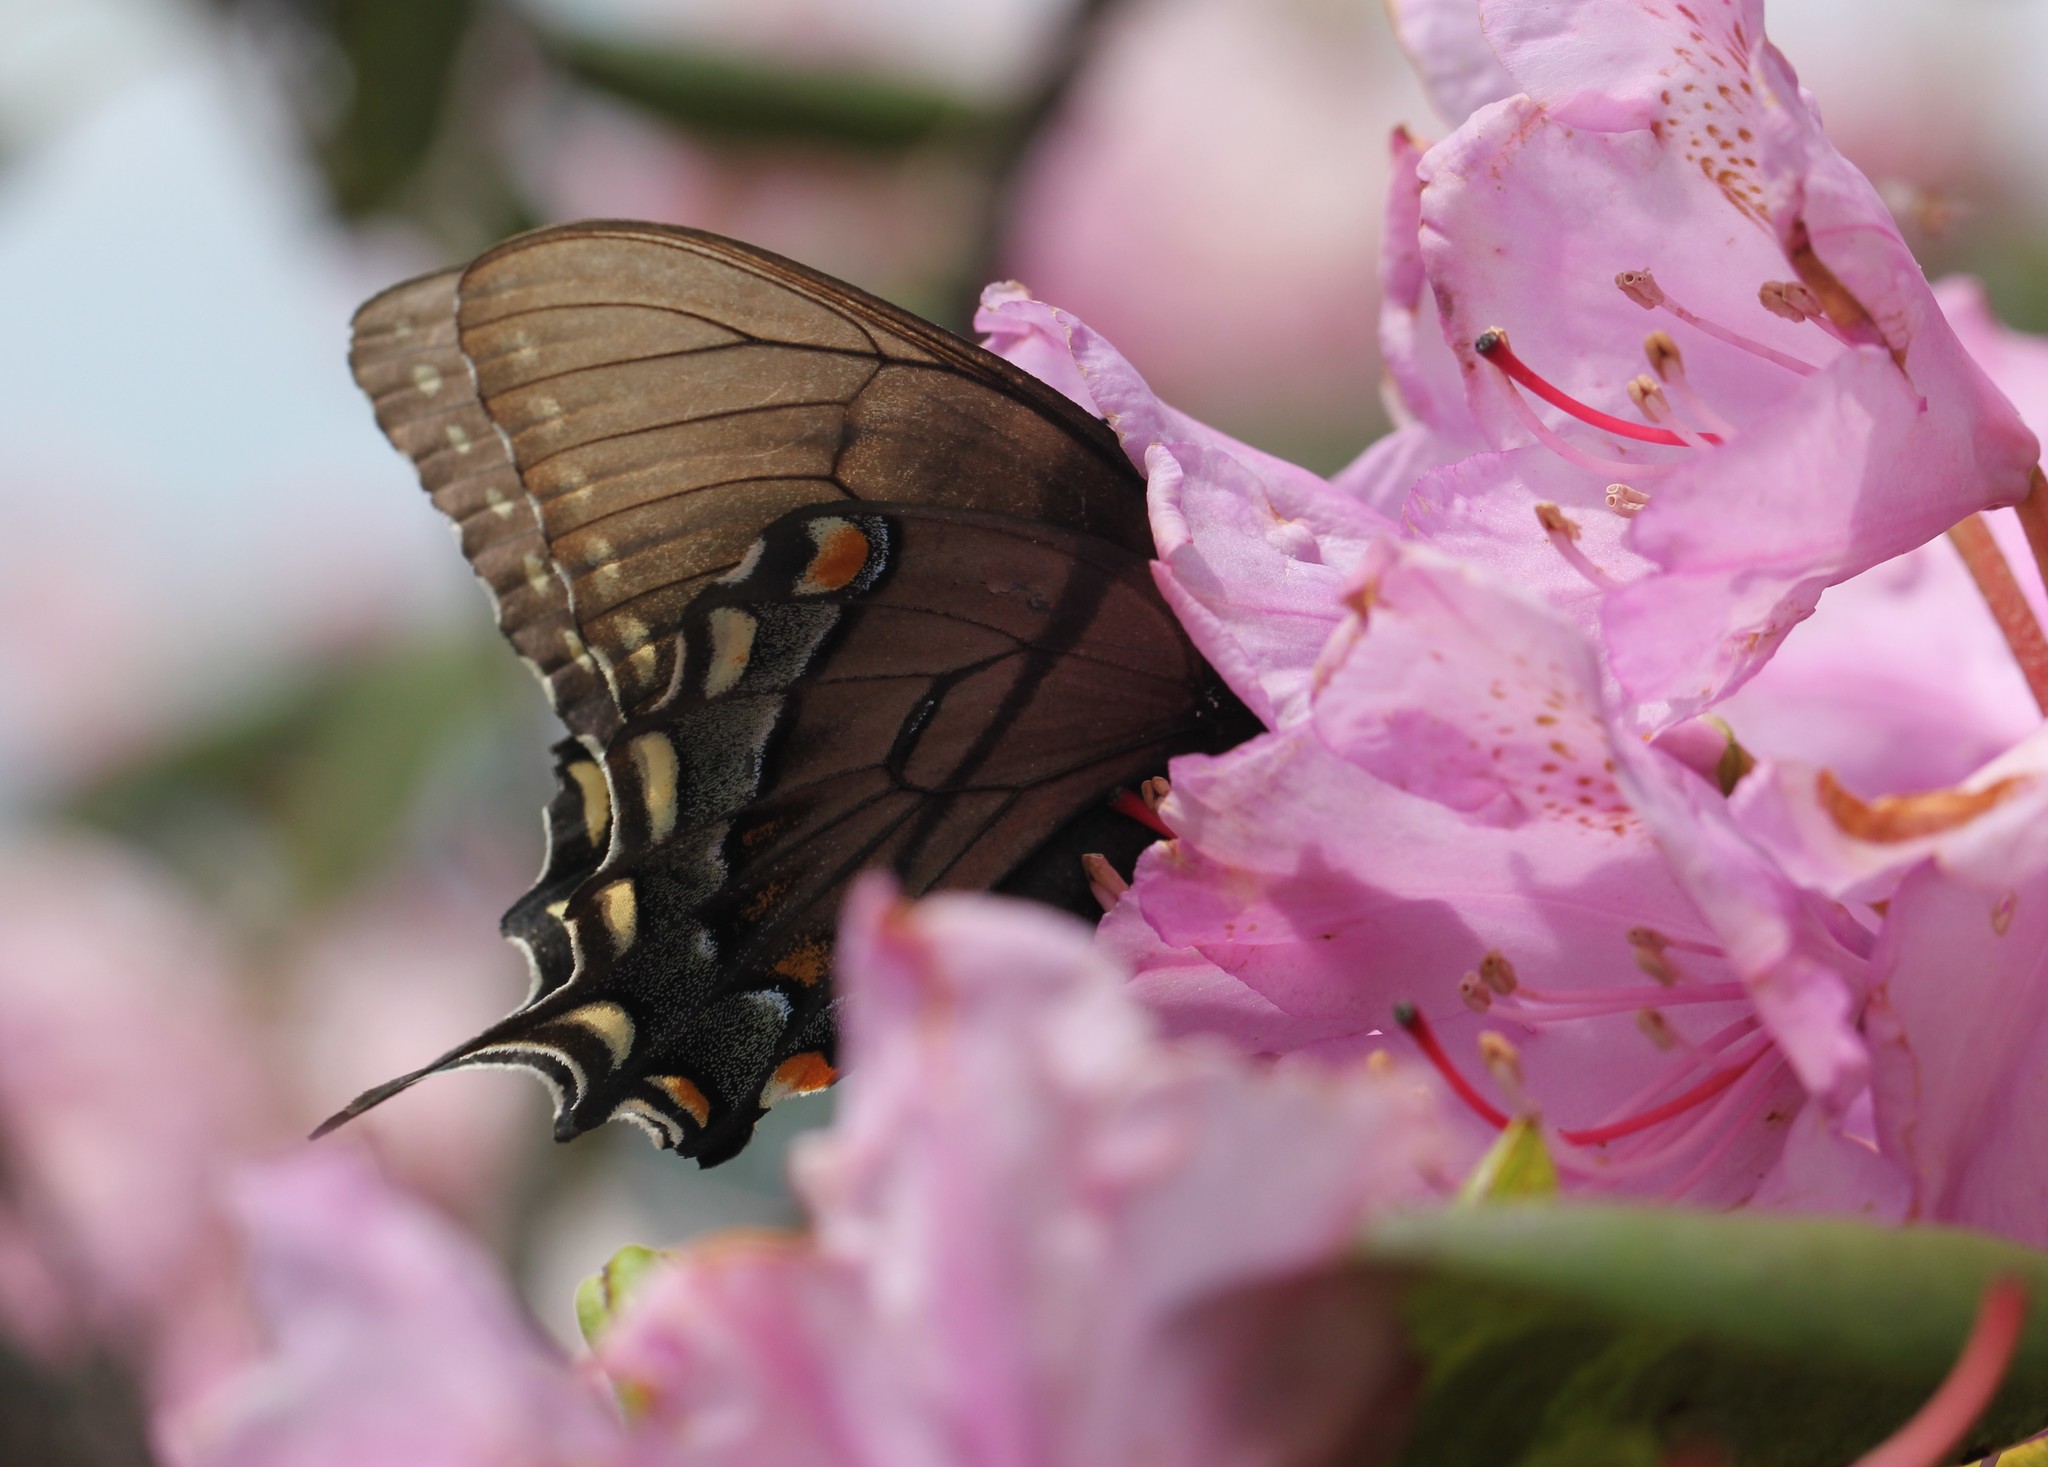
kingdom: Animalia
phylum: Arthropoda
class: Insecta
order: Lepidoptera
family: Papilionidae
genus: Papilio
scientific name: Papilio glaucus
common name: Tiger swallowtail
